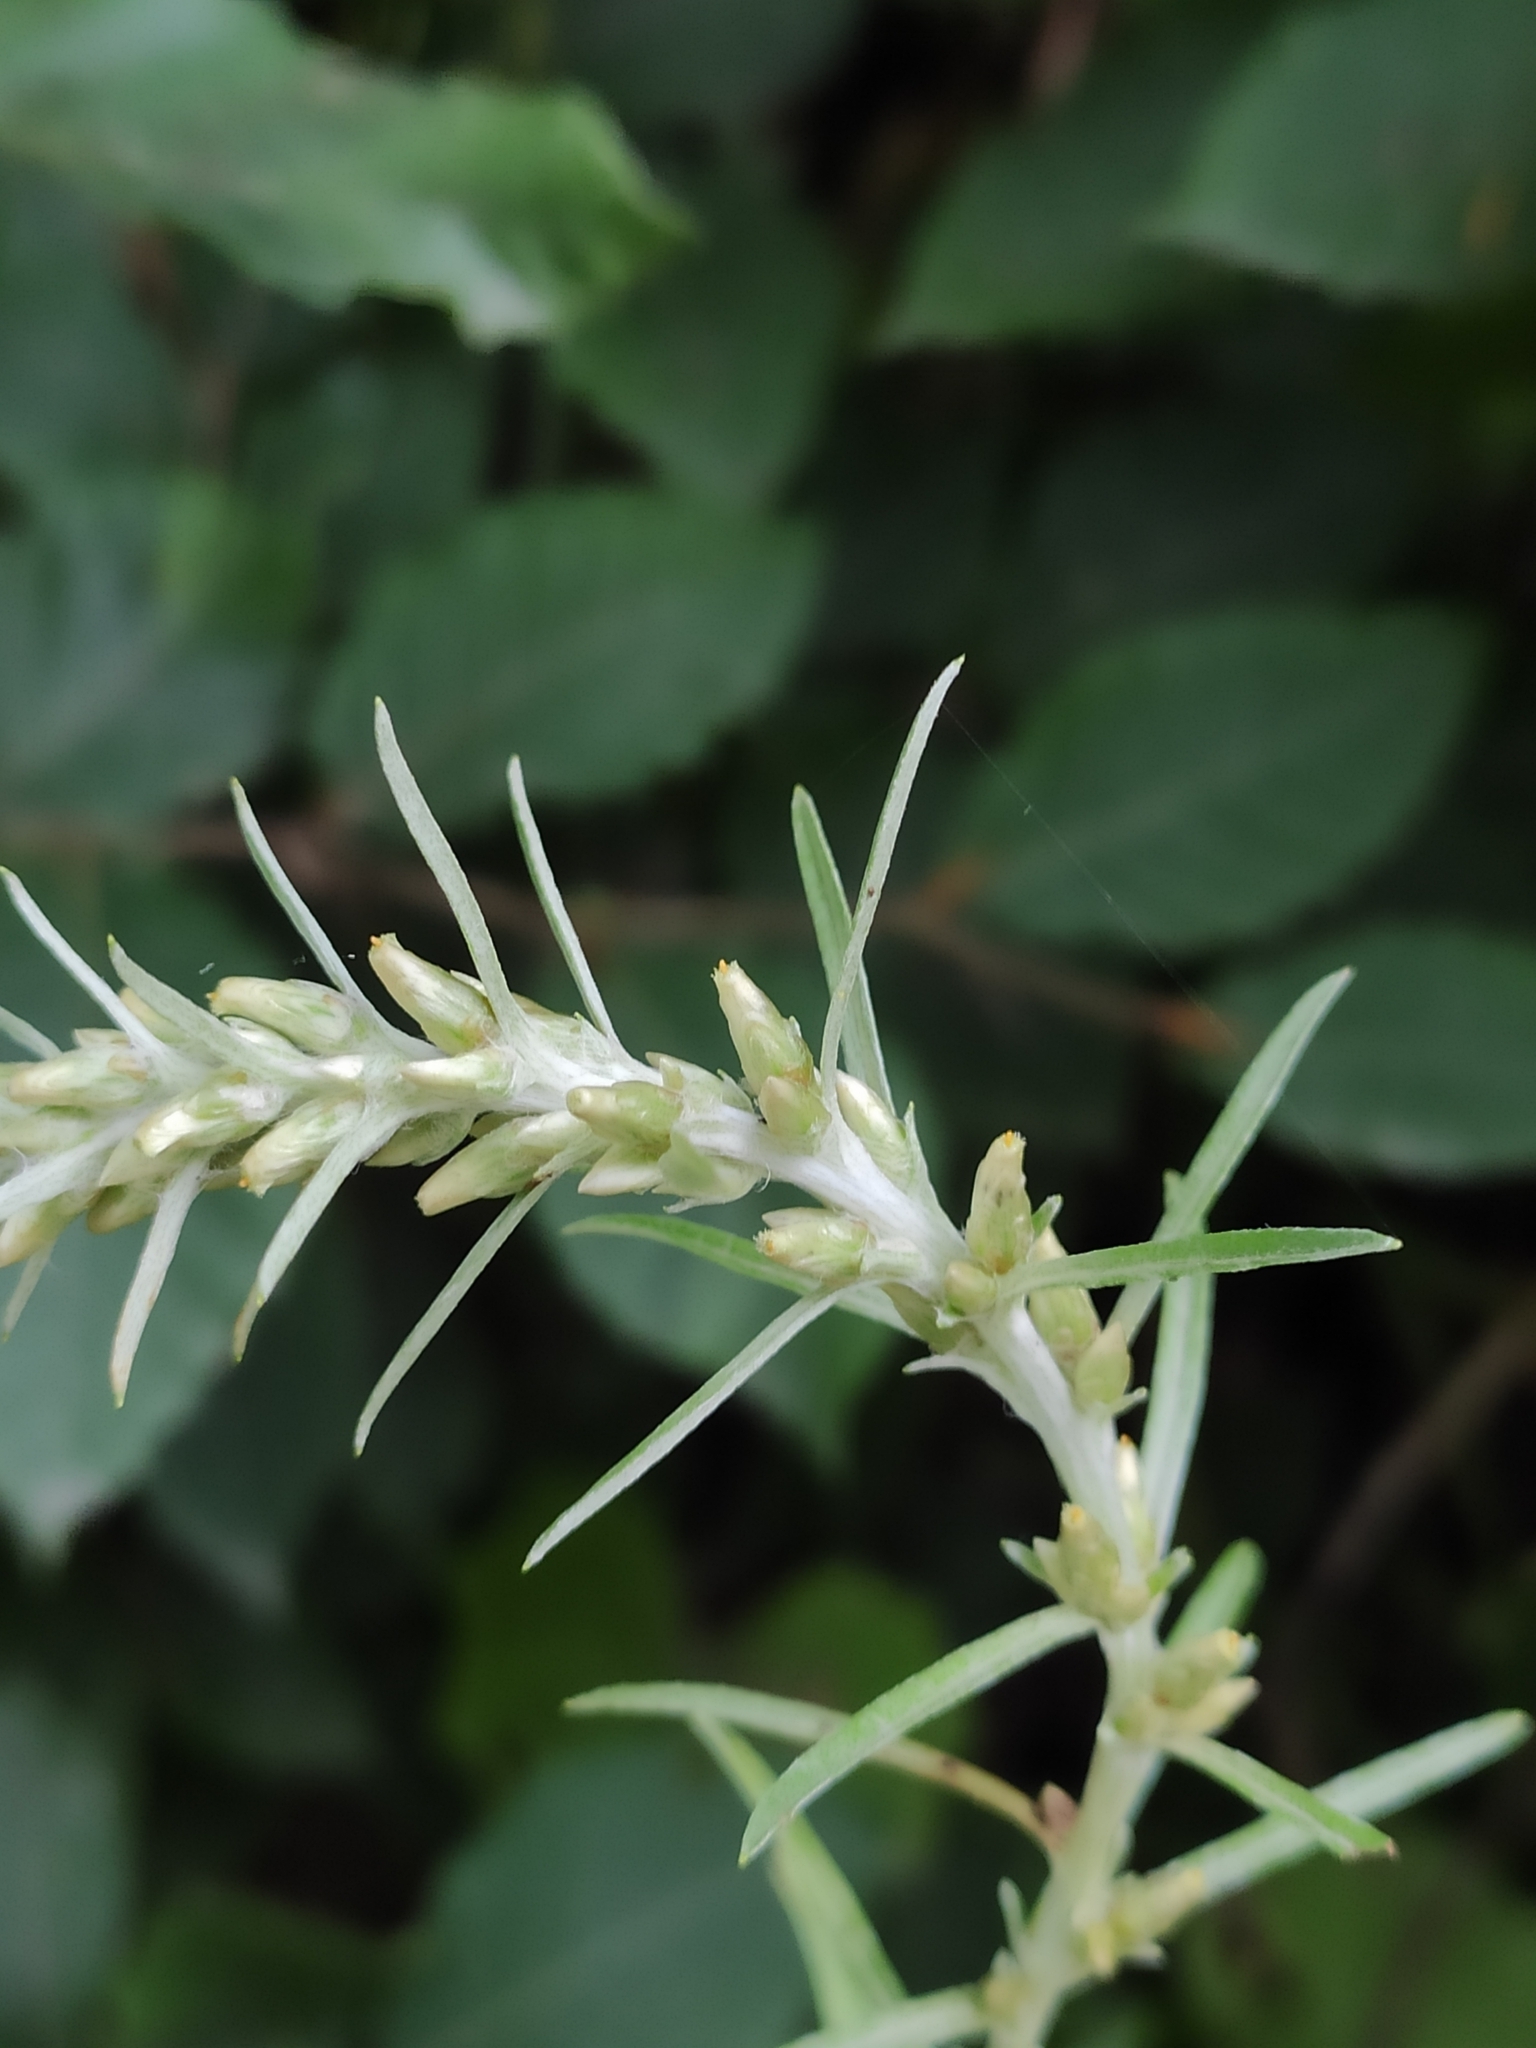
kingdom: Plantae
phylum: Tracheophyta
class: Magnoliopsida
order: Asterales
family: Asteraceae
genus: Omalotheca
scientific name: Omalotheca sylvatica
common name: Heath cudweed
